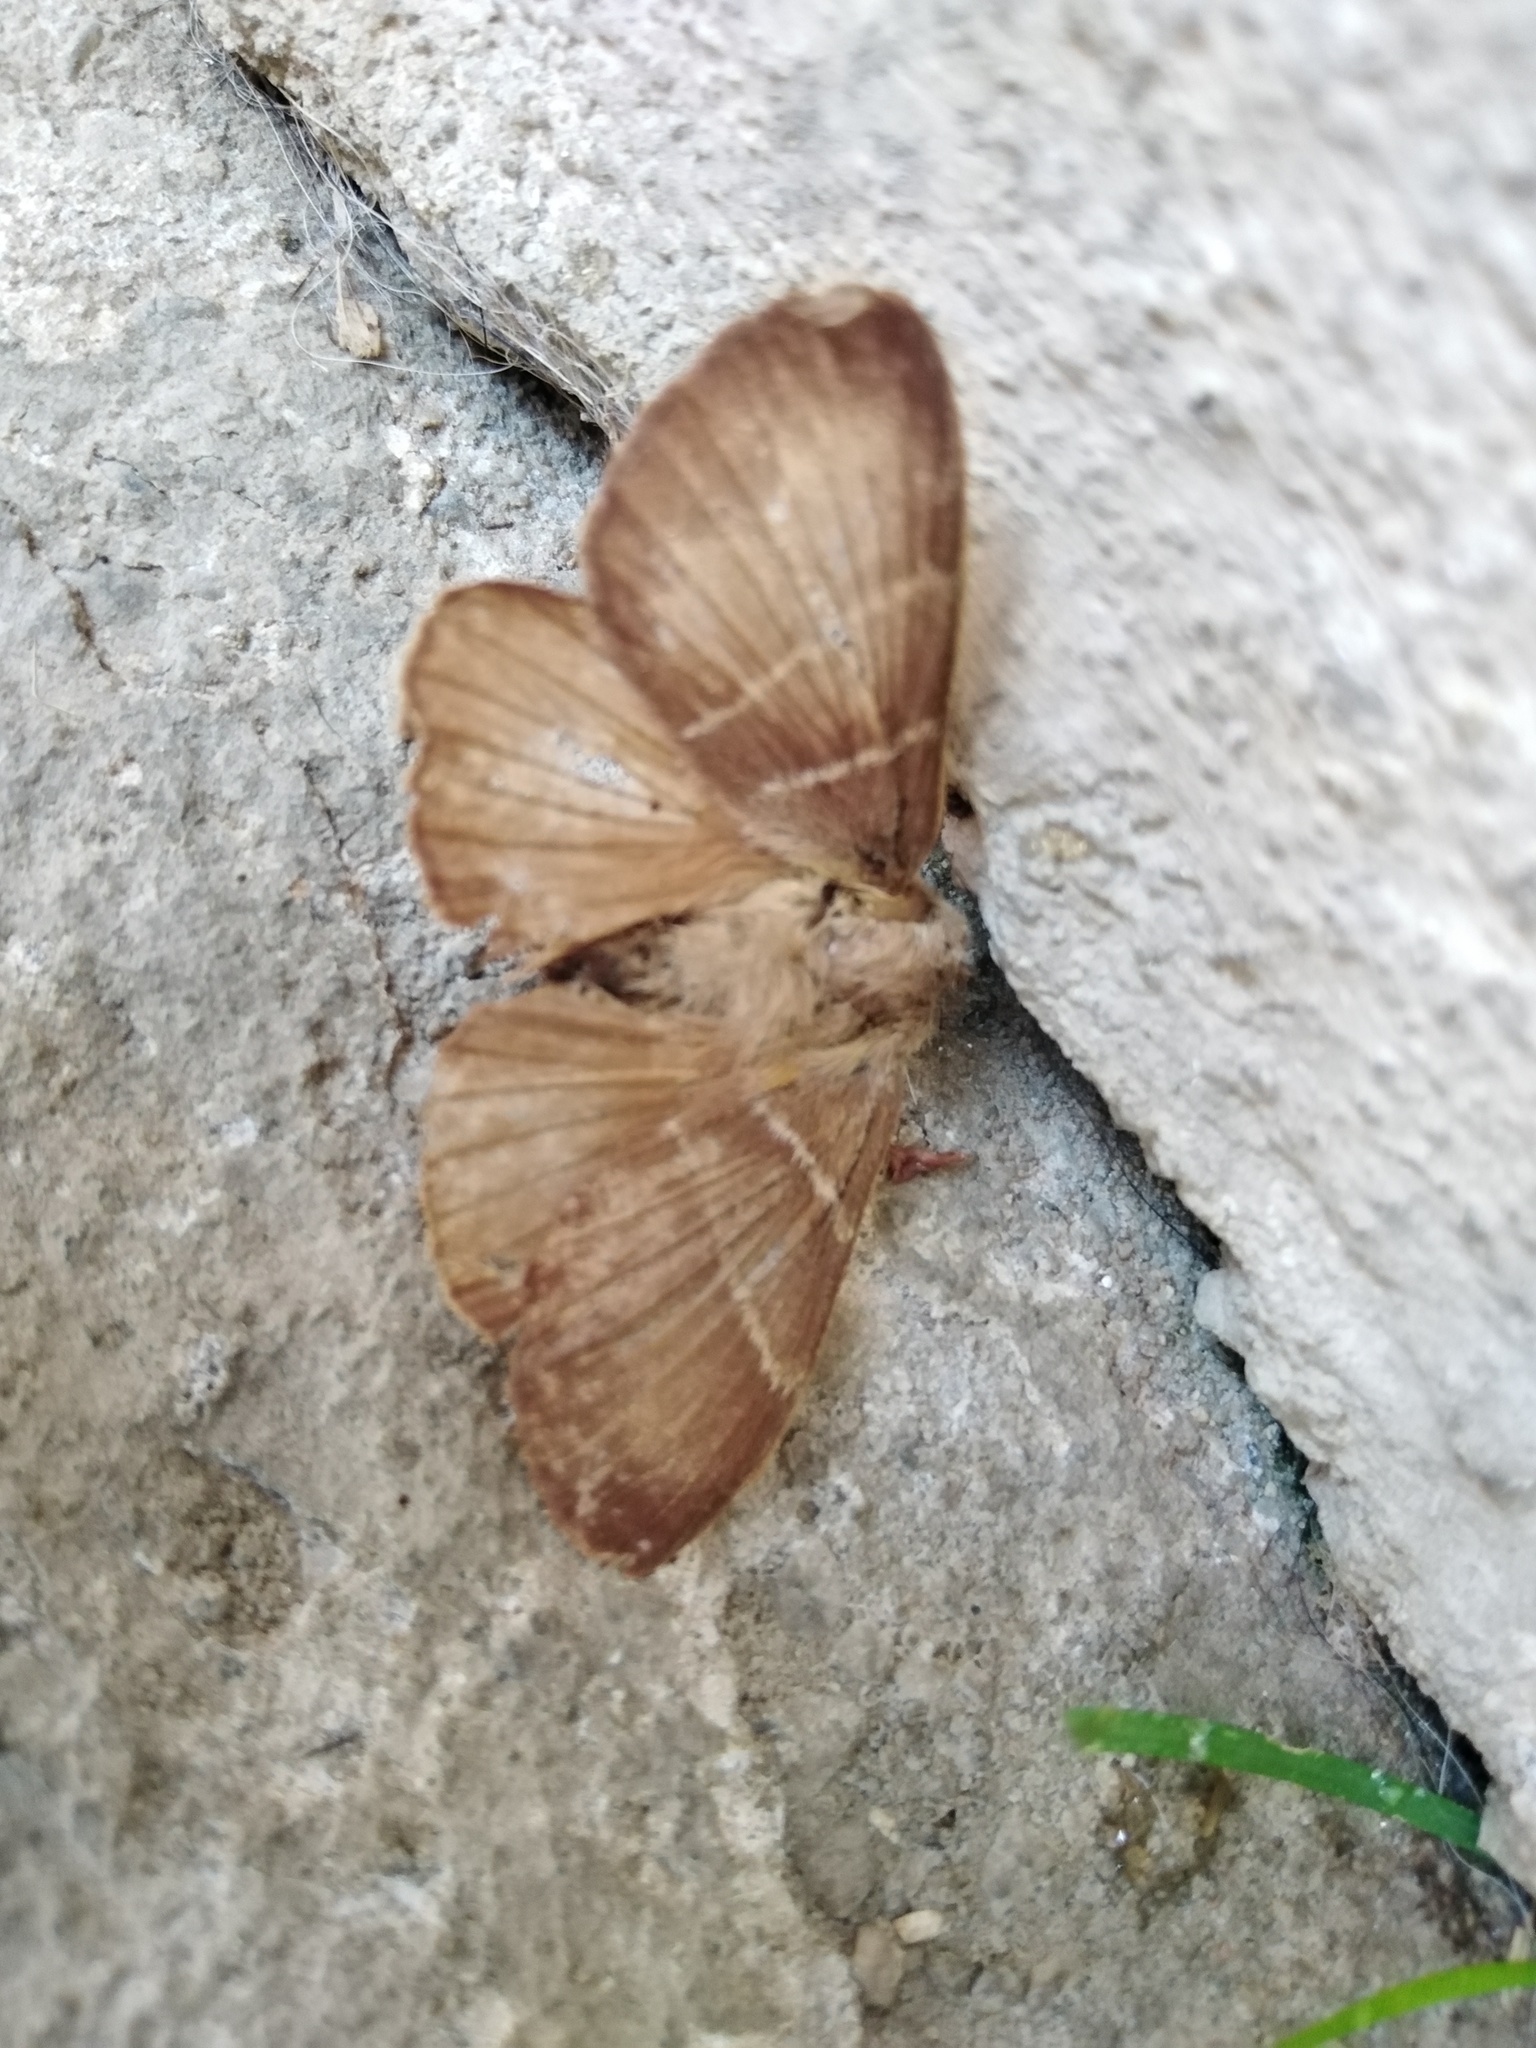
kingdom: Animalia
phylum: Arthropoda
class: Insecta
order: Lepidoptera
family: Lasiocampidae
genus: Macrothylacia
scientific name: Macrothylacia rubi
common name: Fox moth
